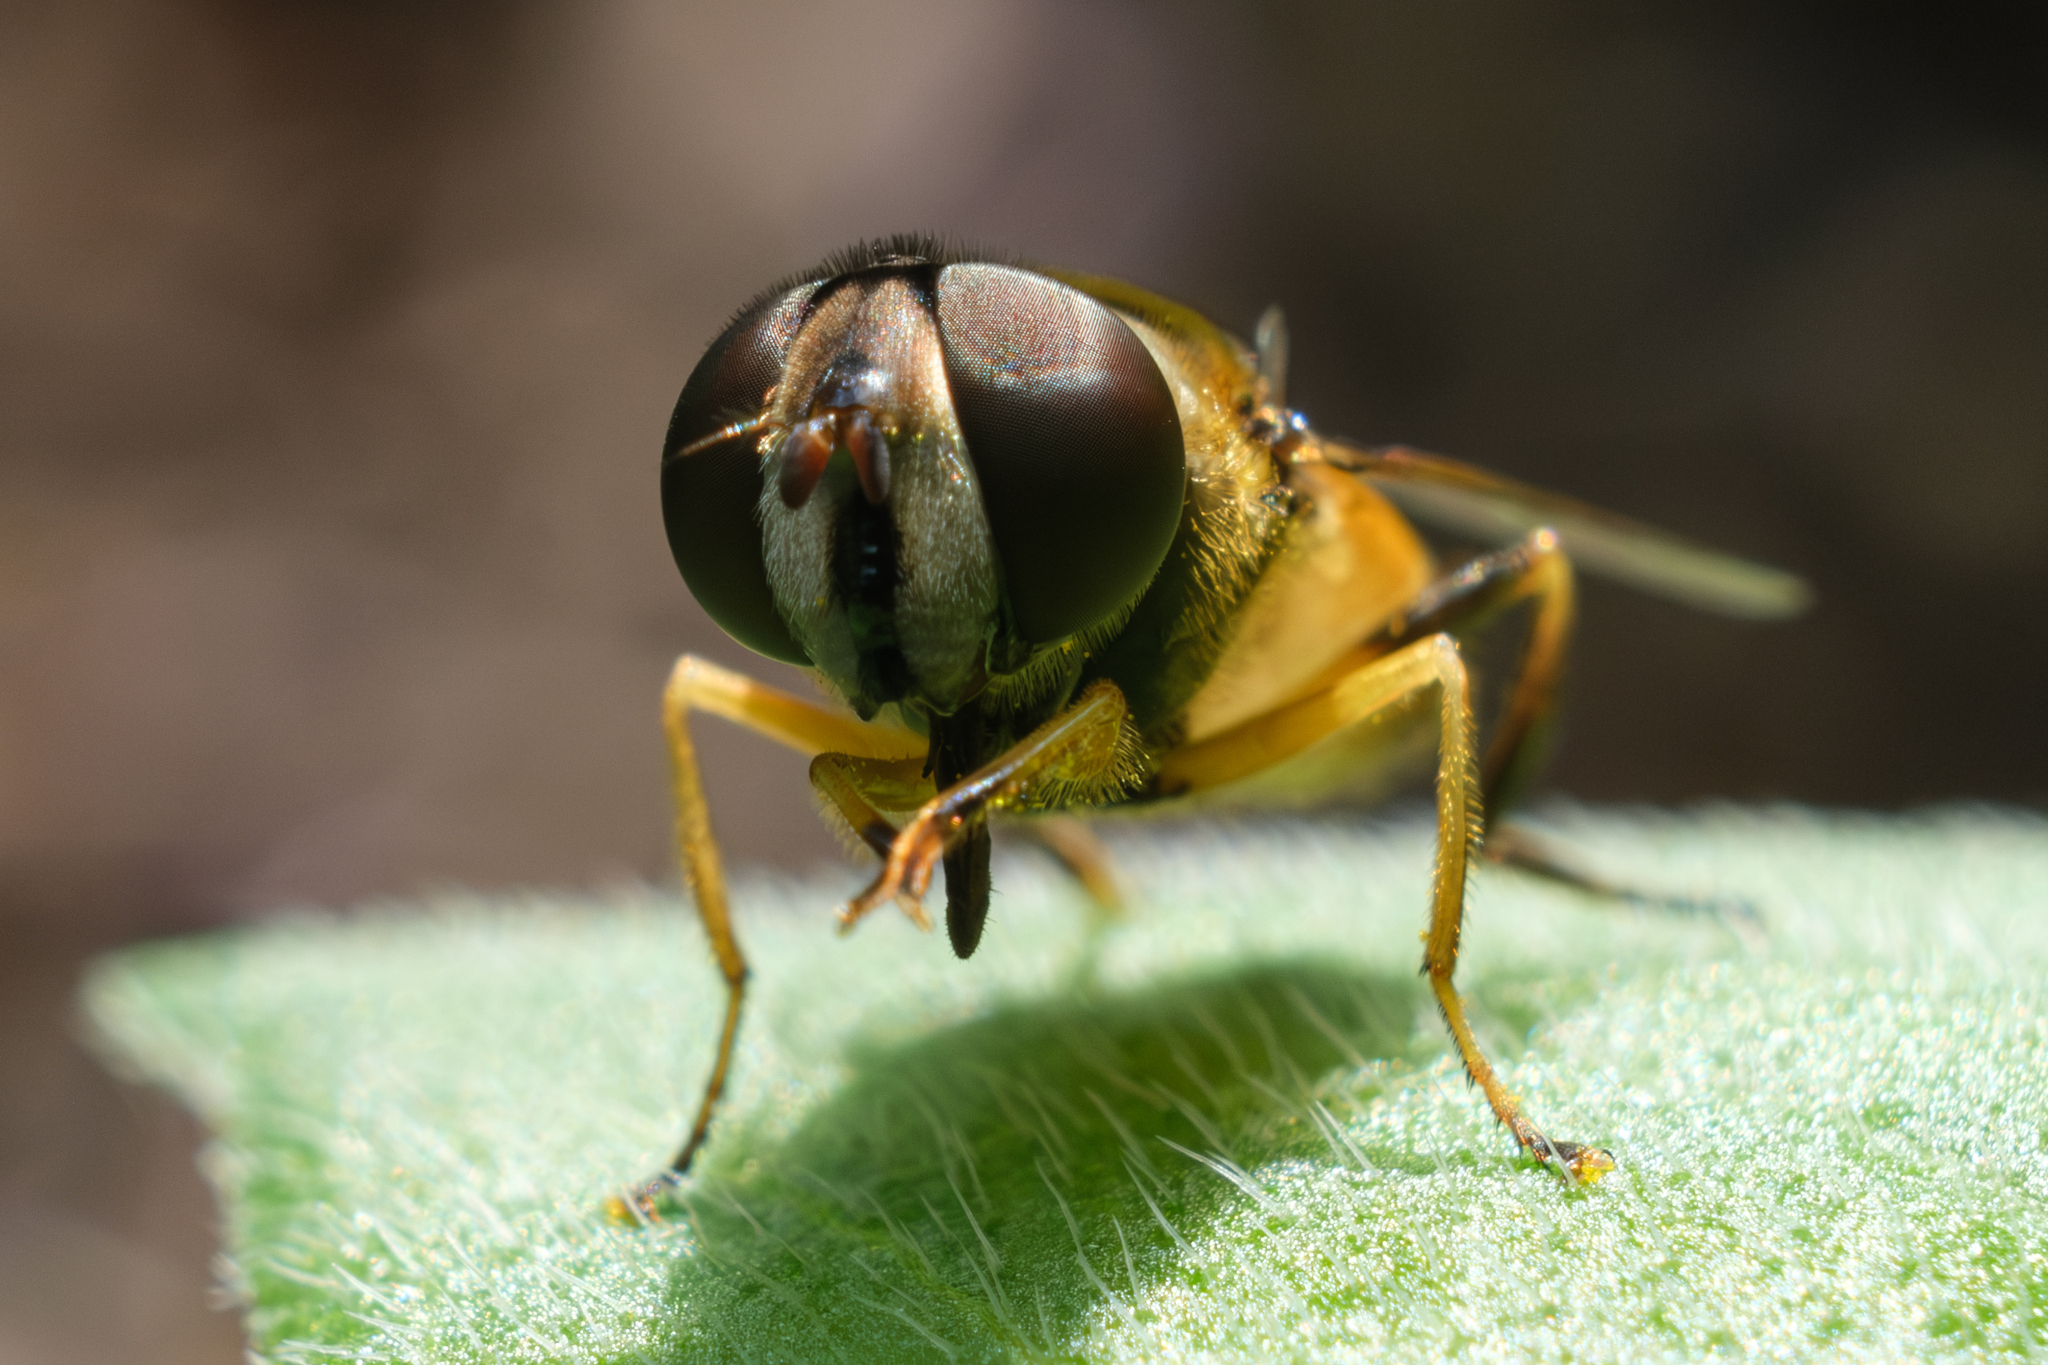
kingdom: Animalia
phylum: Arthropoda
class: Insecta
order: Diptera
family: Syrphidae
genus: Eristalis
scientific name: Eristalis transversa
